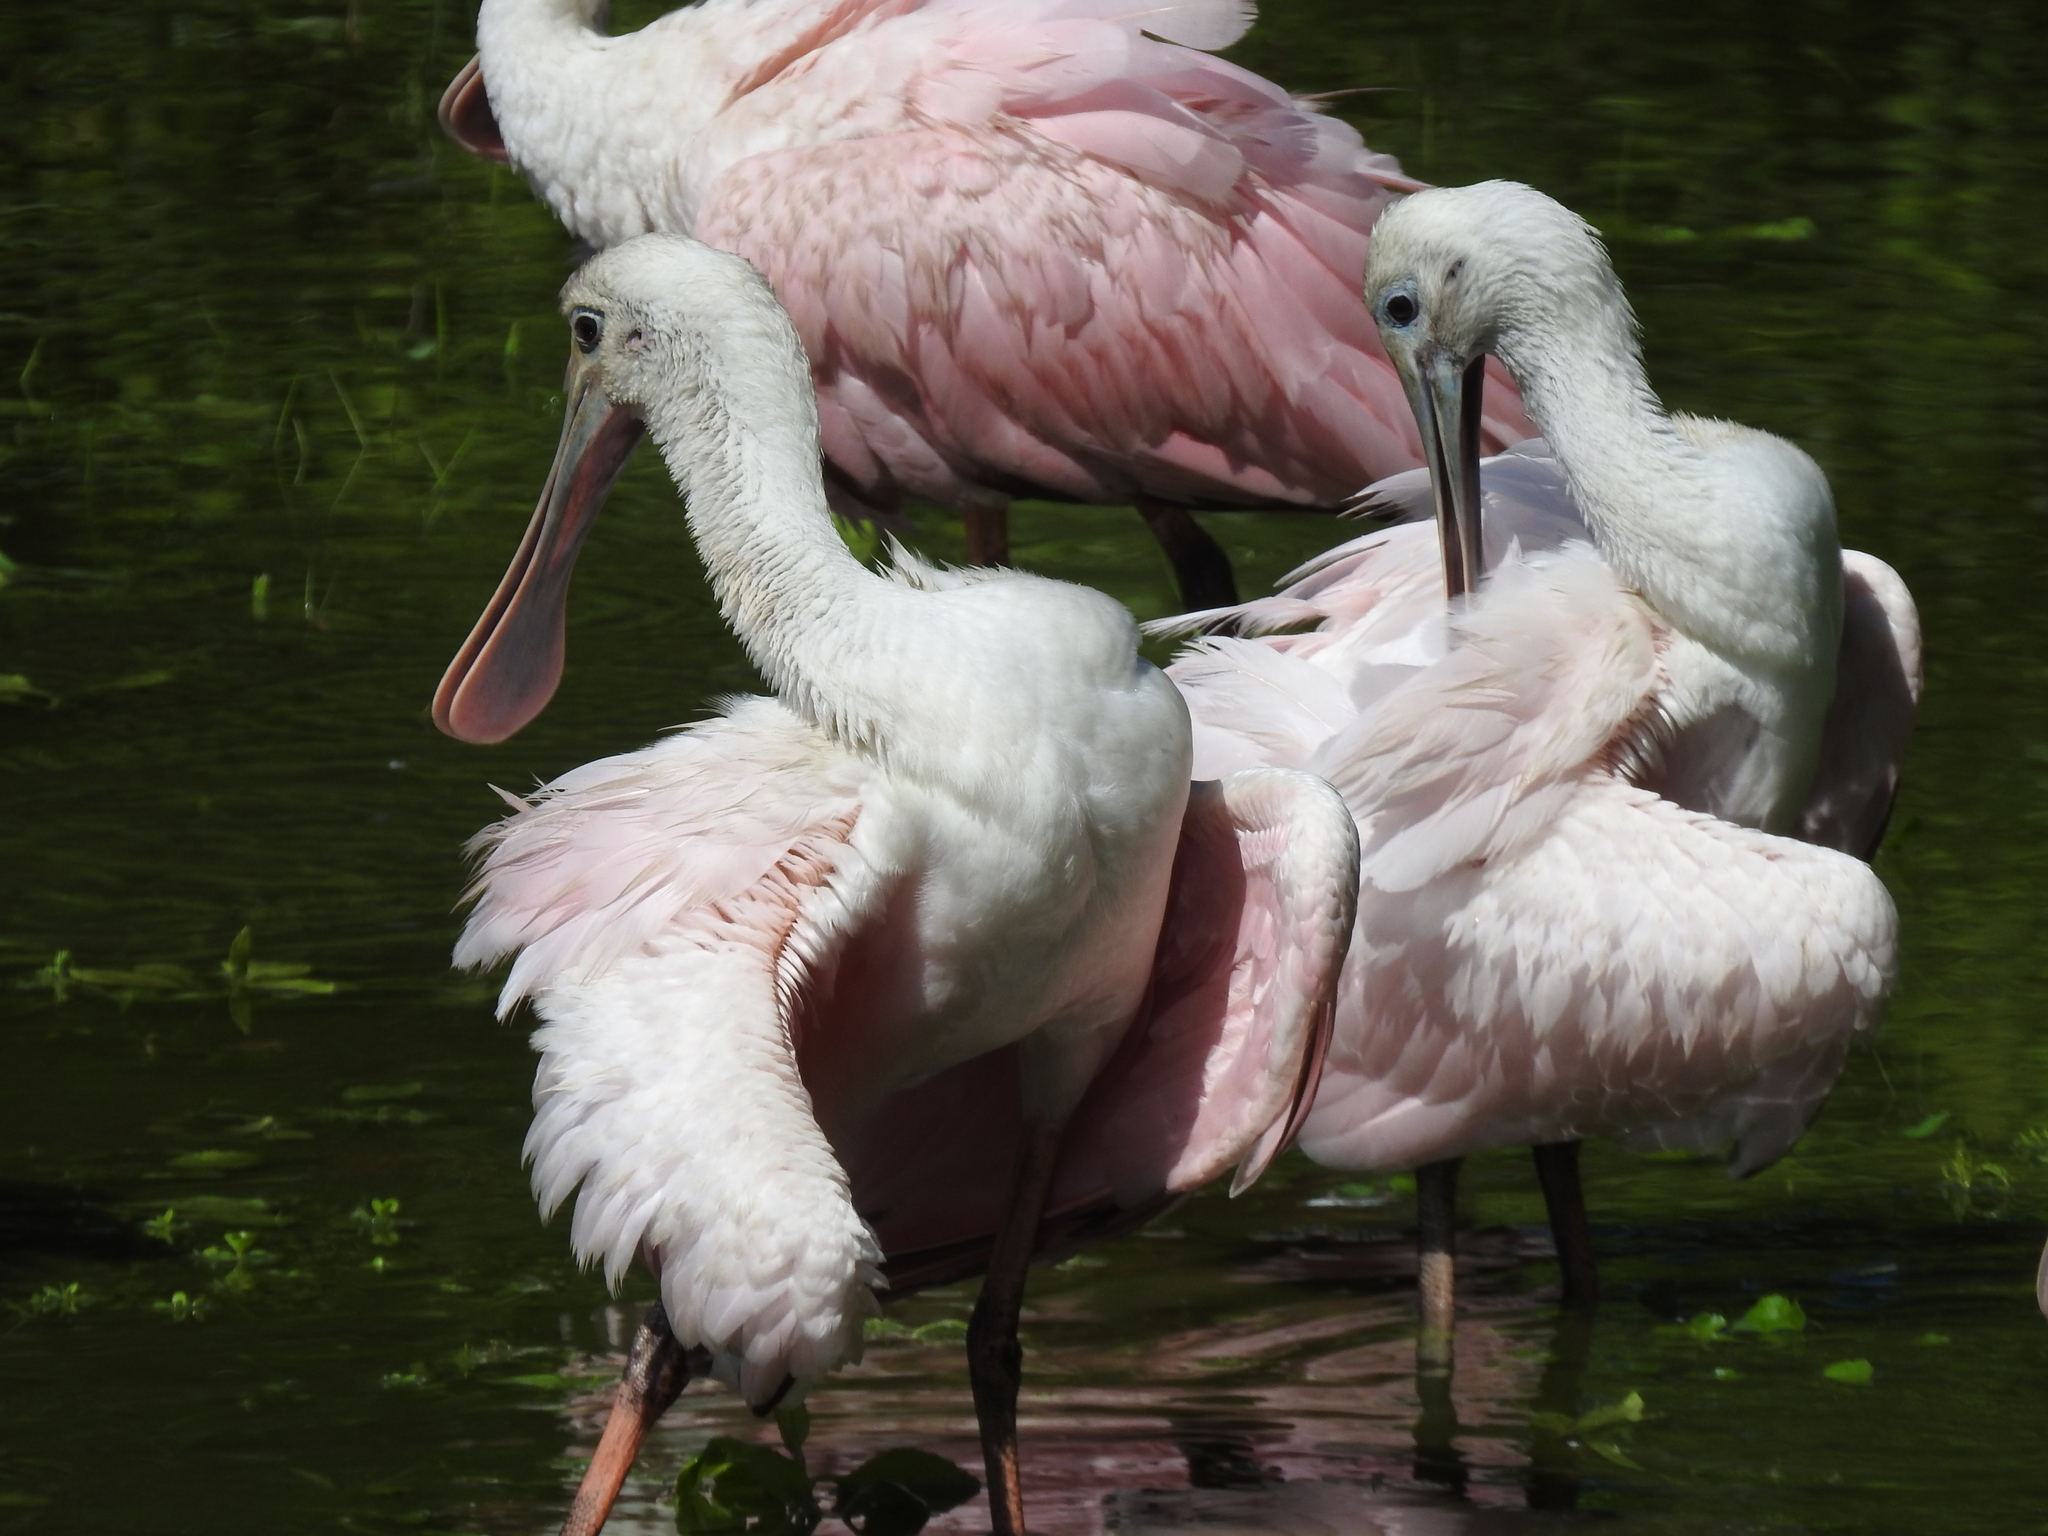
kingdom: Animalia
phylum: Chordata
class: Aves
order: Pelecaniformes
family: Threskiornithidae
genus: Platalea
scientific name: Platalea ajaja
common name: Roseate spoonbill
